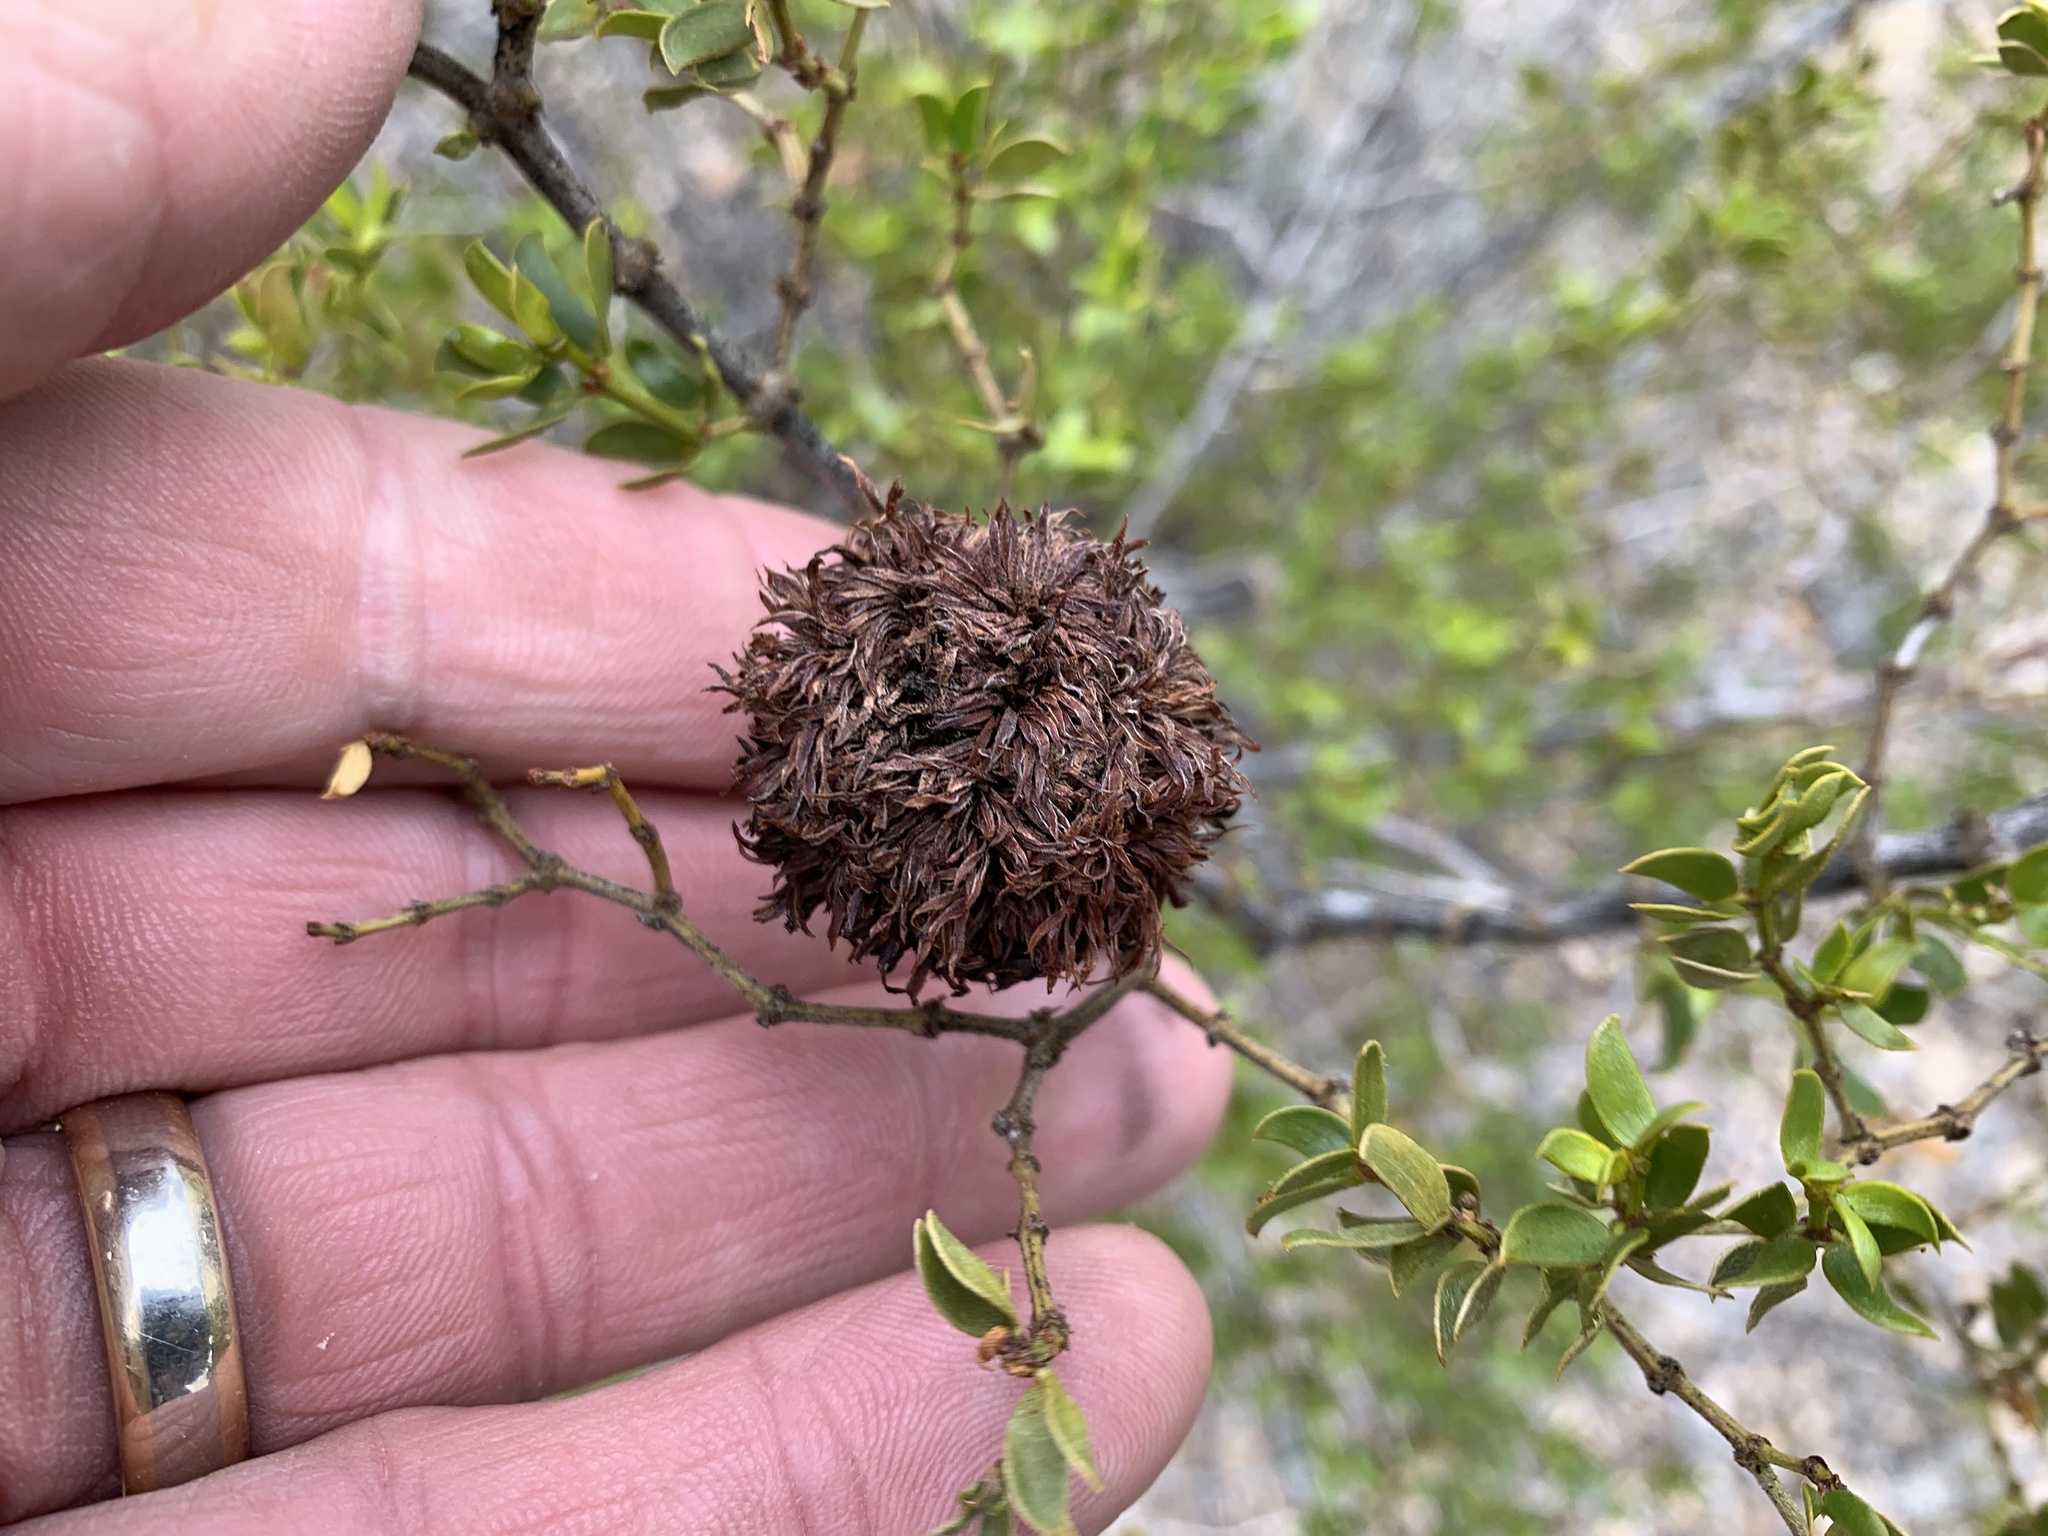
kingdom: Animalia
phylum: Arthropoda
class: Insecta
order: Diptera
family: Cecidomyiidae
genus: Asphondylia
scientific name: Asphondylia auripila
